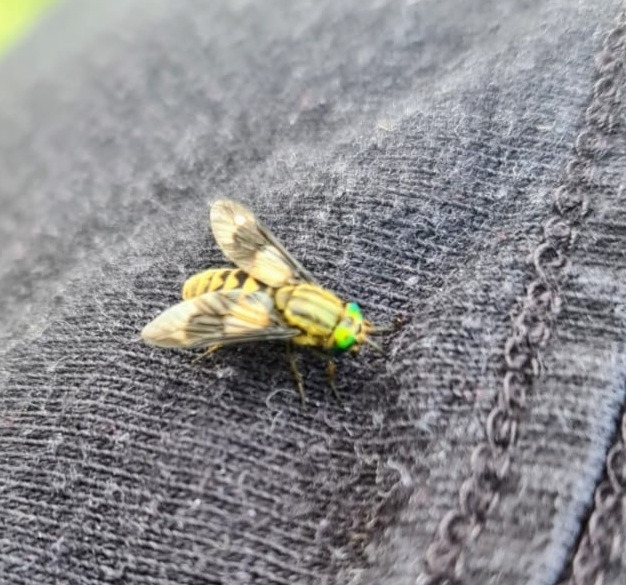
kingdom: Animalia
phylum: Arthropoda
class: Insecta
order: Diptera
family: Tabanidae
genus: Chrysops
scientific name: Chrysops relictus
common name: Twin-lobed deerfly
